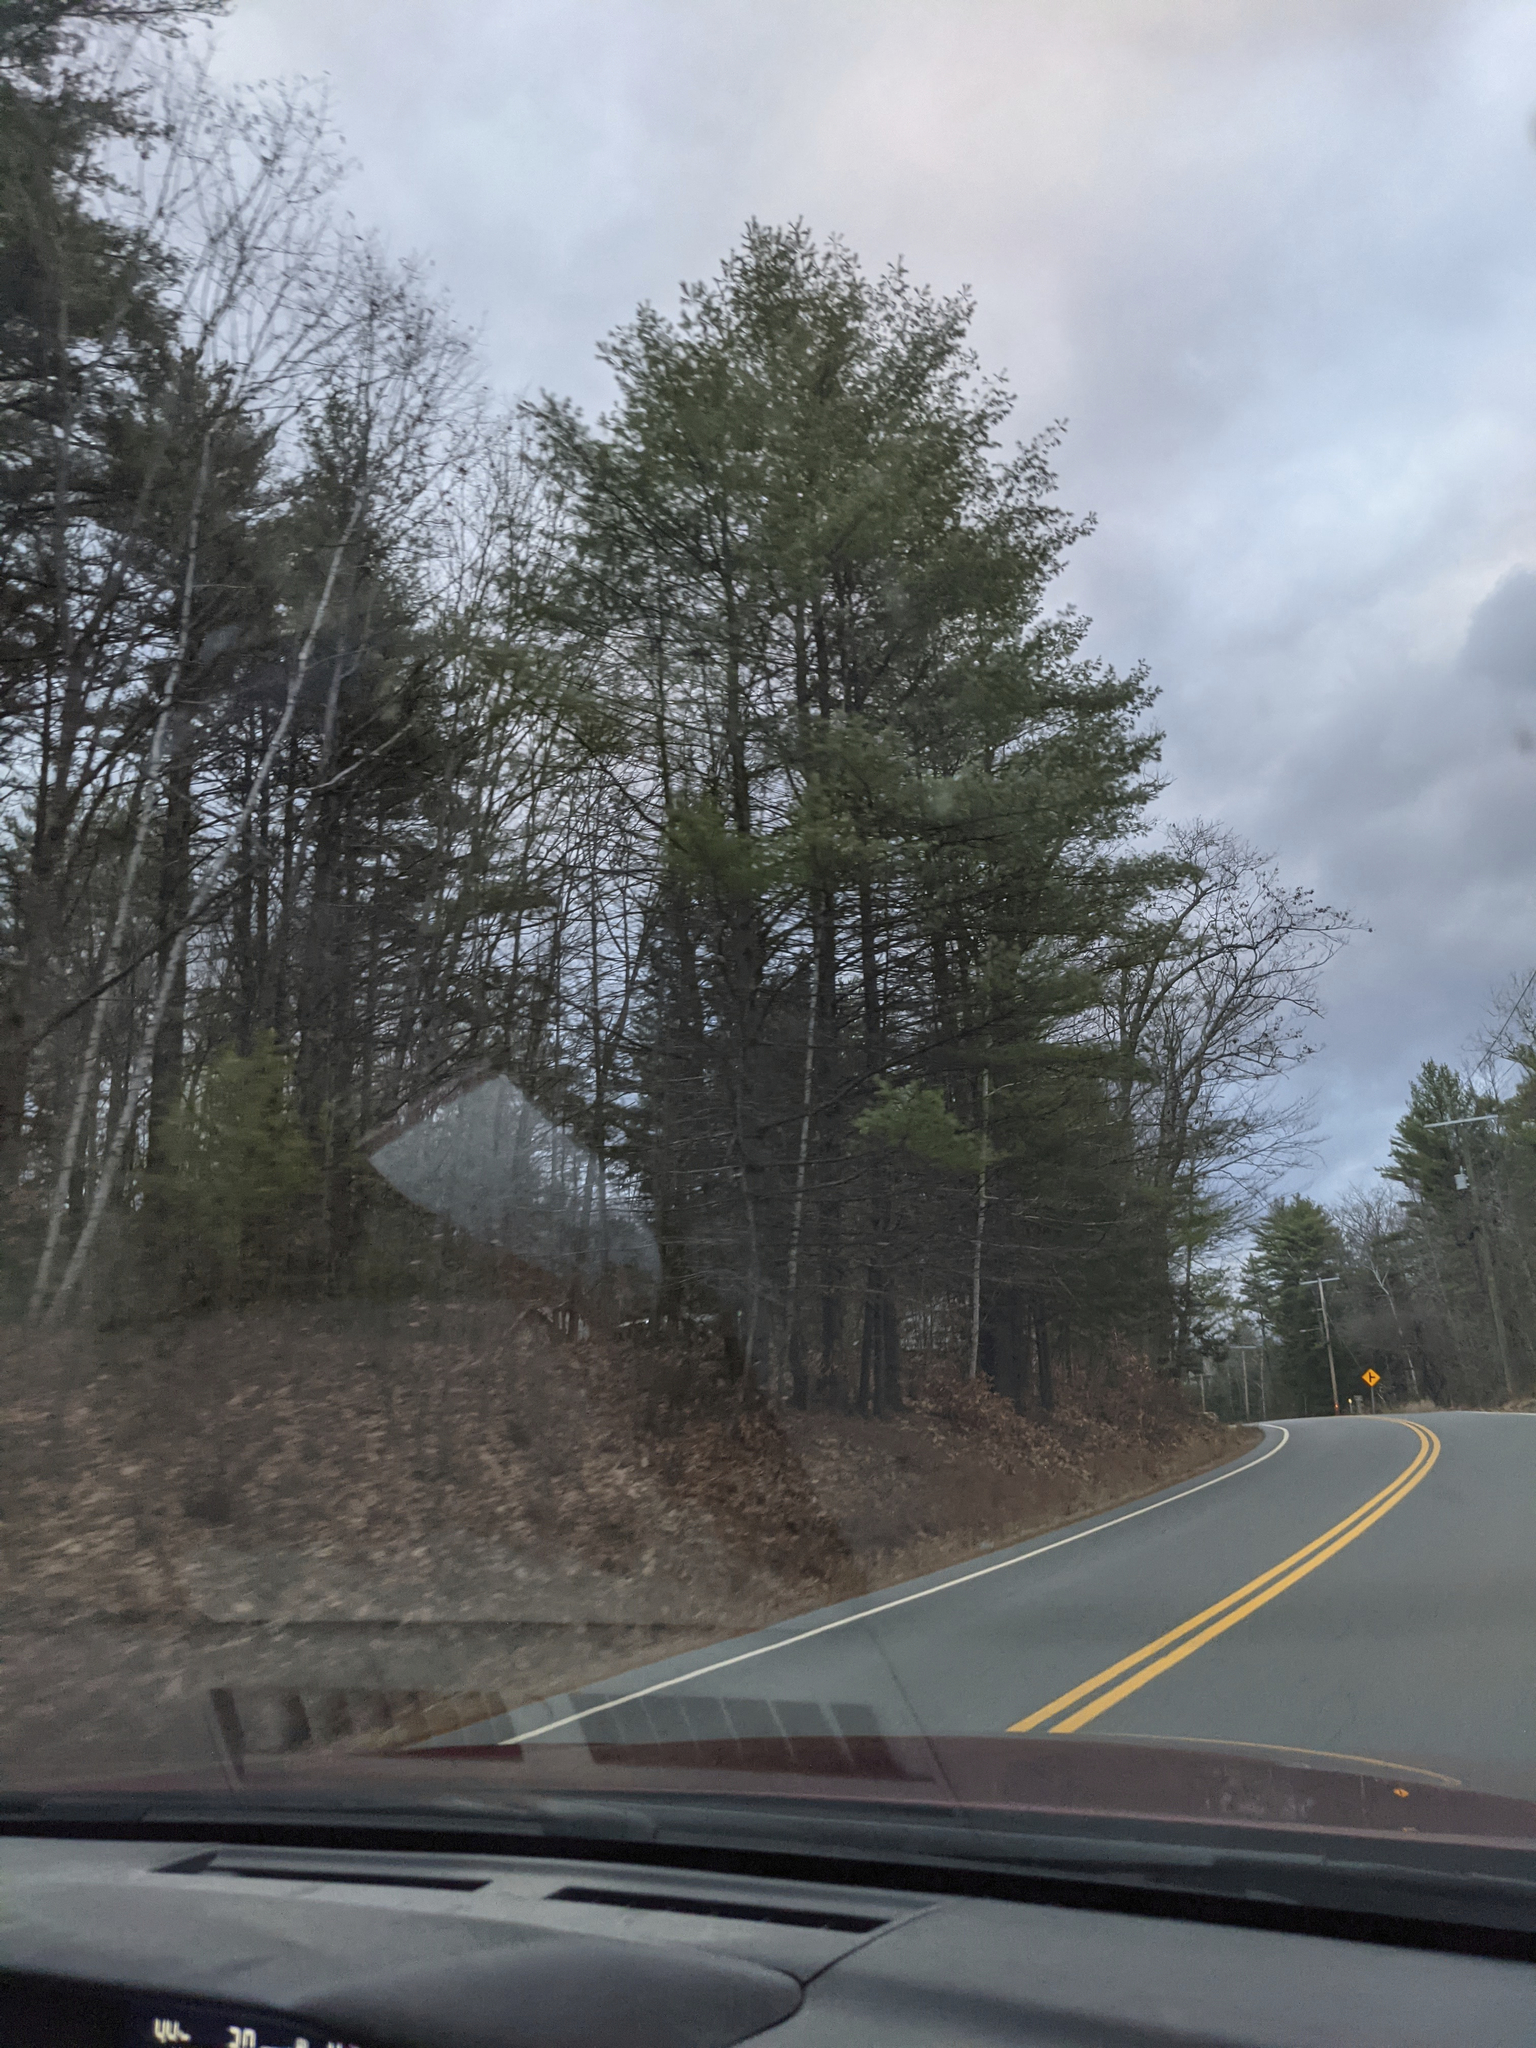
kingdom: Plantae
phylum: Tracheophyta
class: Pinopsida
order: Pinales
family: Pinaceae
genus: Pinus
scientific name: Pinus strobus
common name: Weymouth pine
